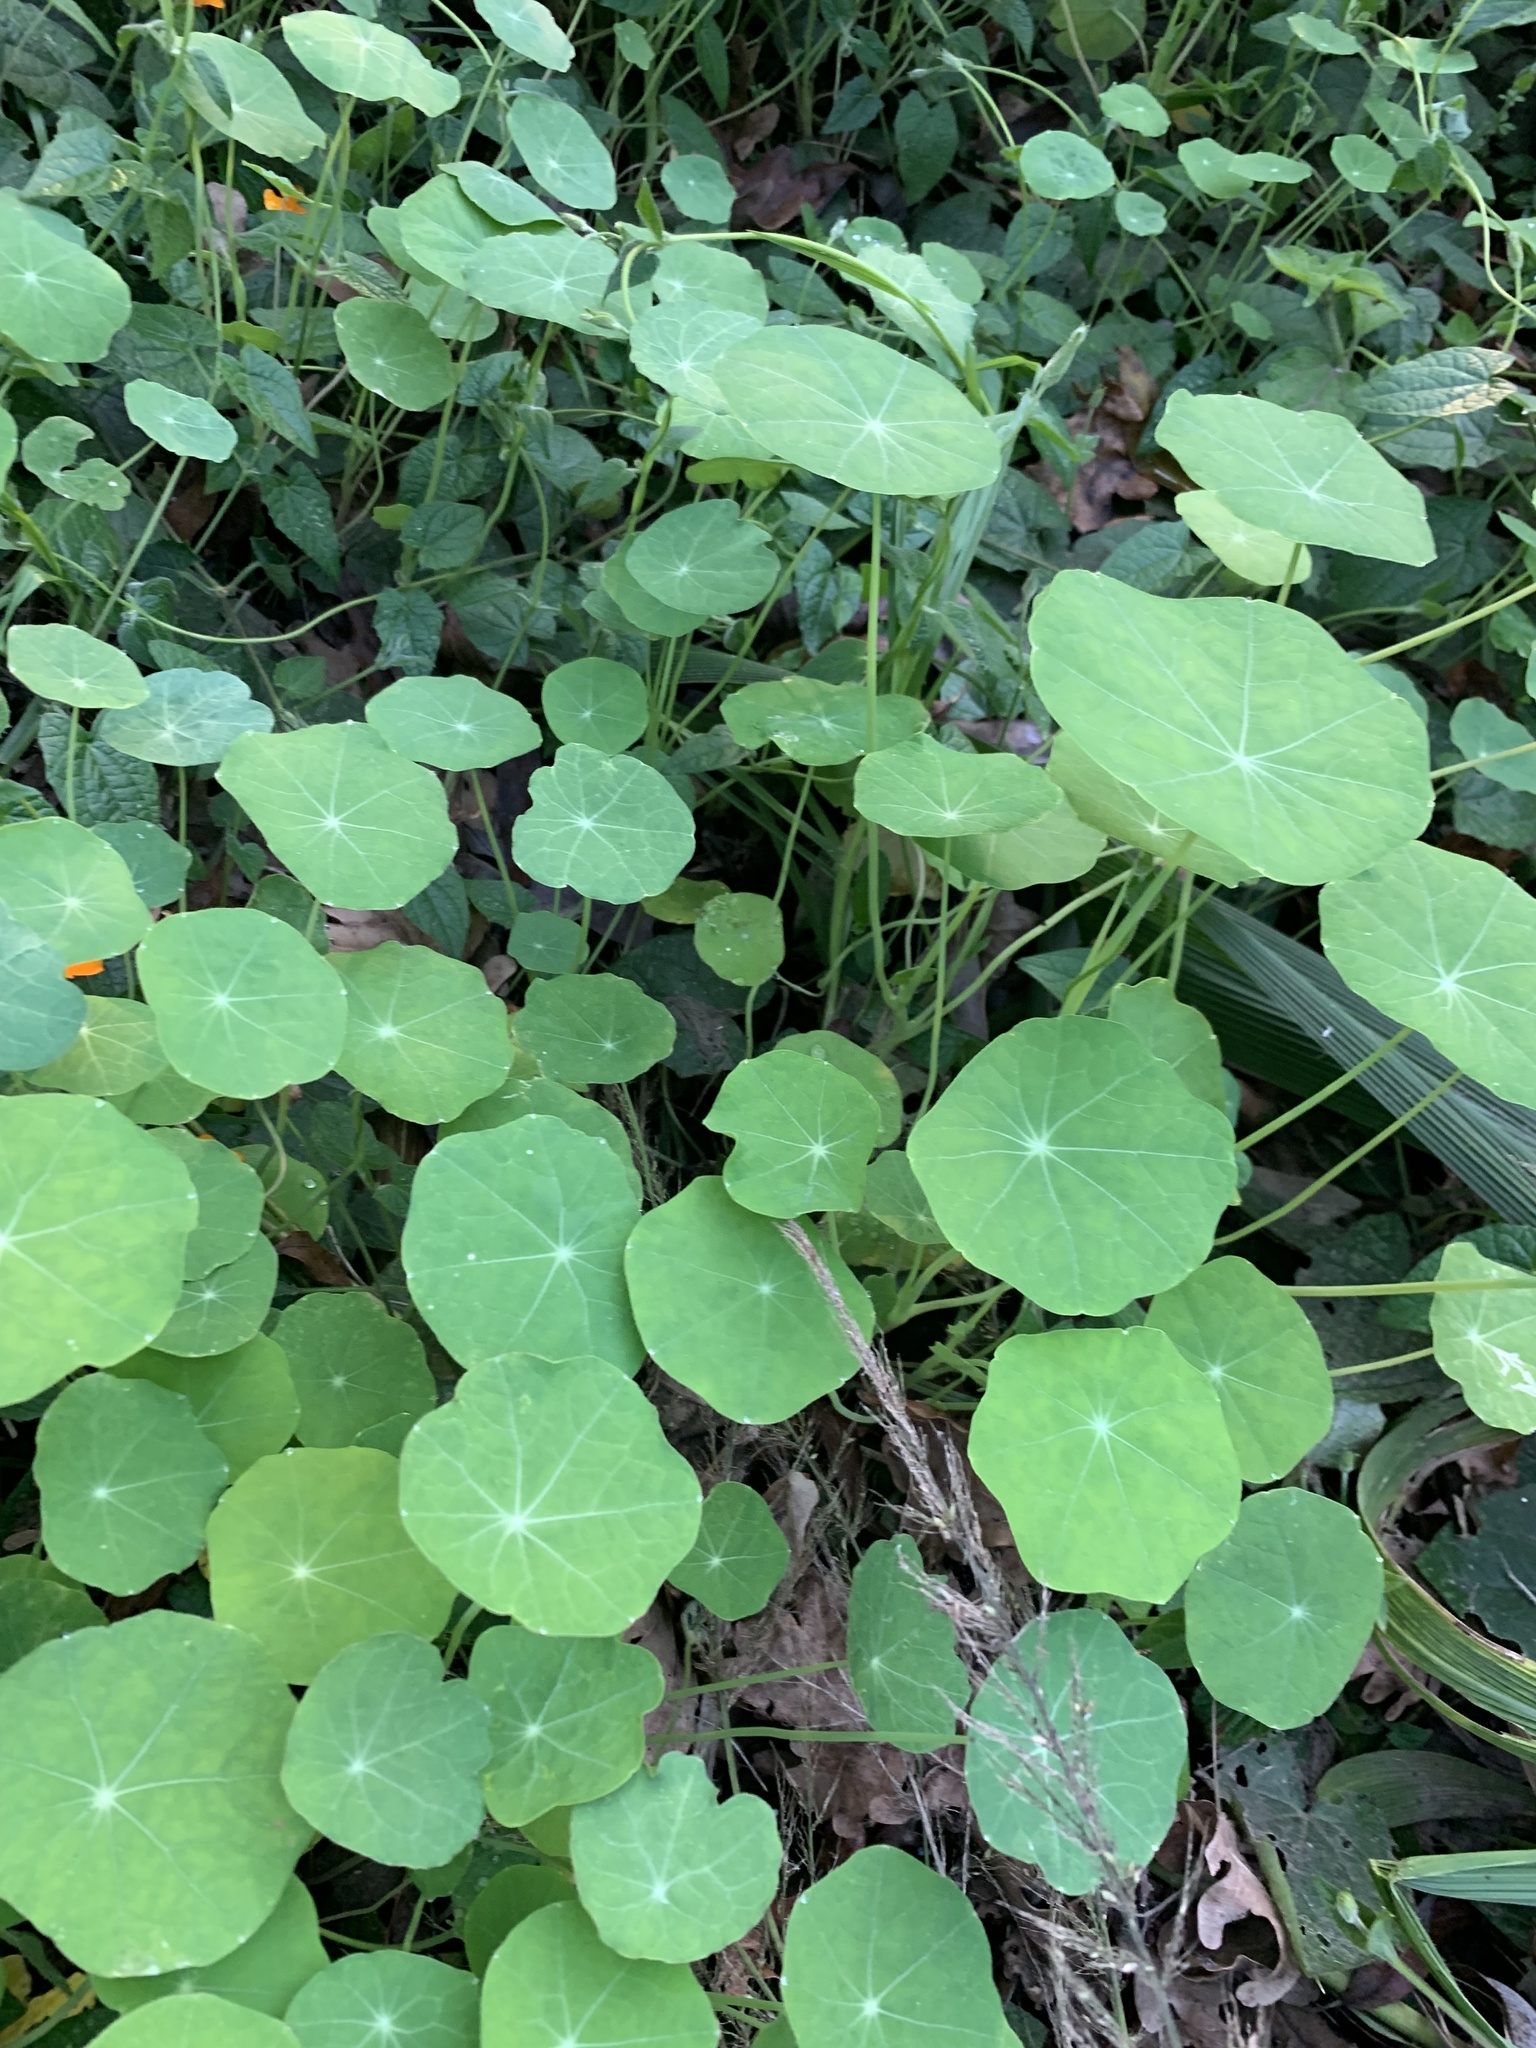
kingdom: Plantae
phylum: Tracheophyta
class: Magnoliopsida
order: Brassicales
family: Tropaeolaceae
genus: Tropaeolum
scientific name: Tropaeolum majus
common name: Nasturtium
